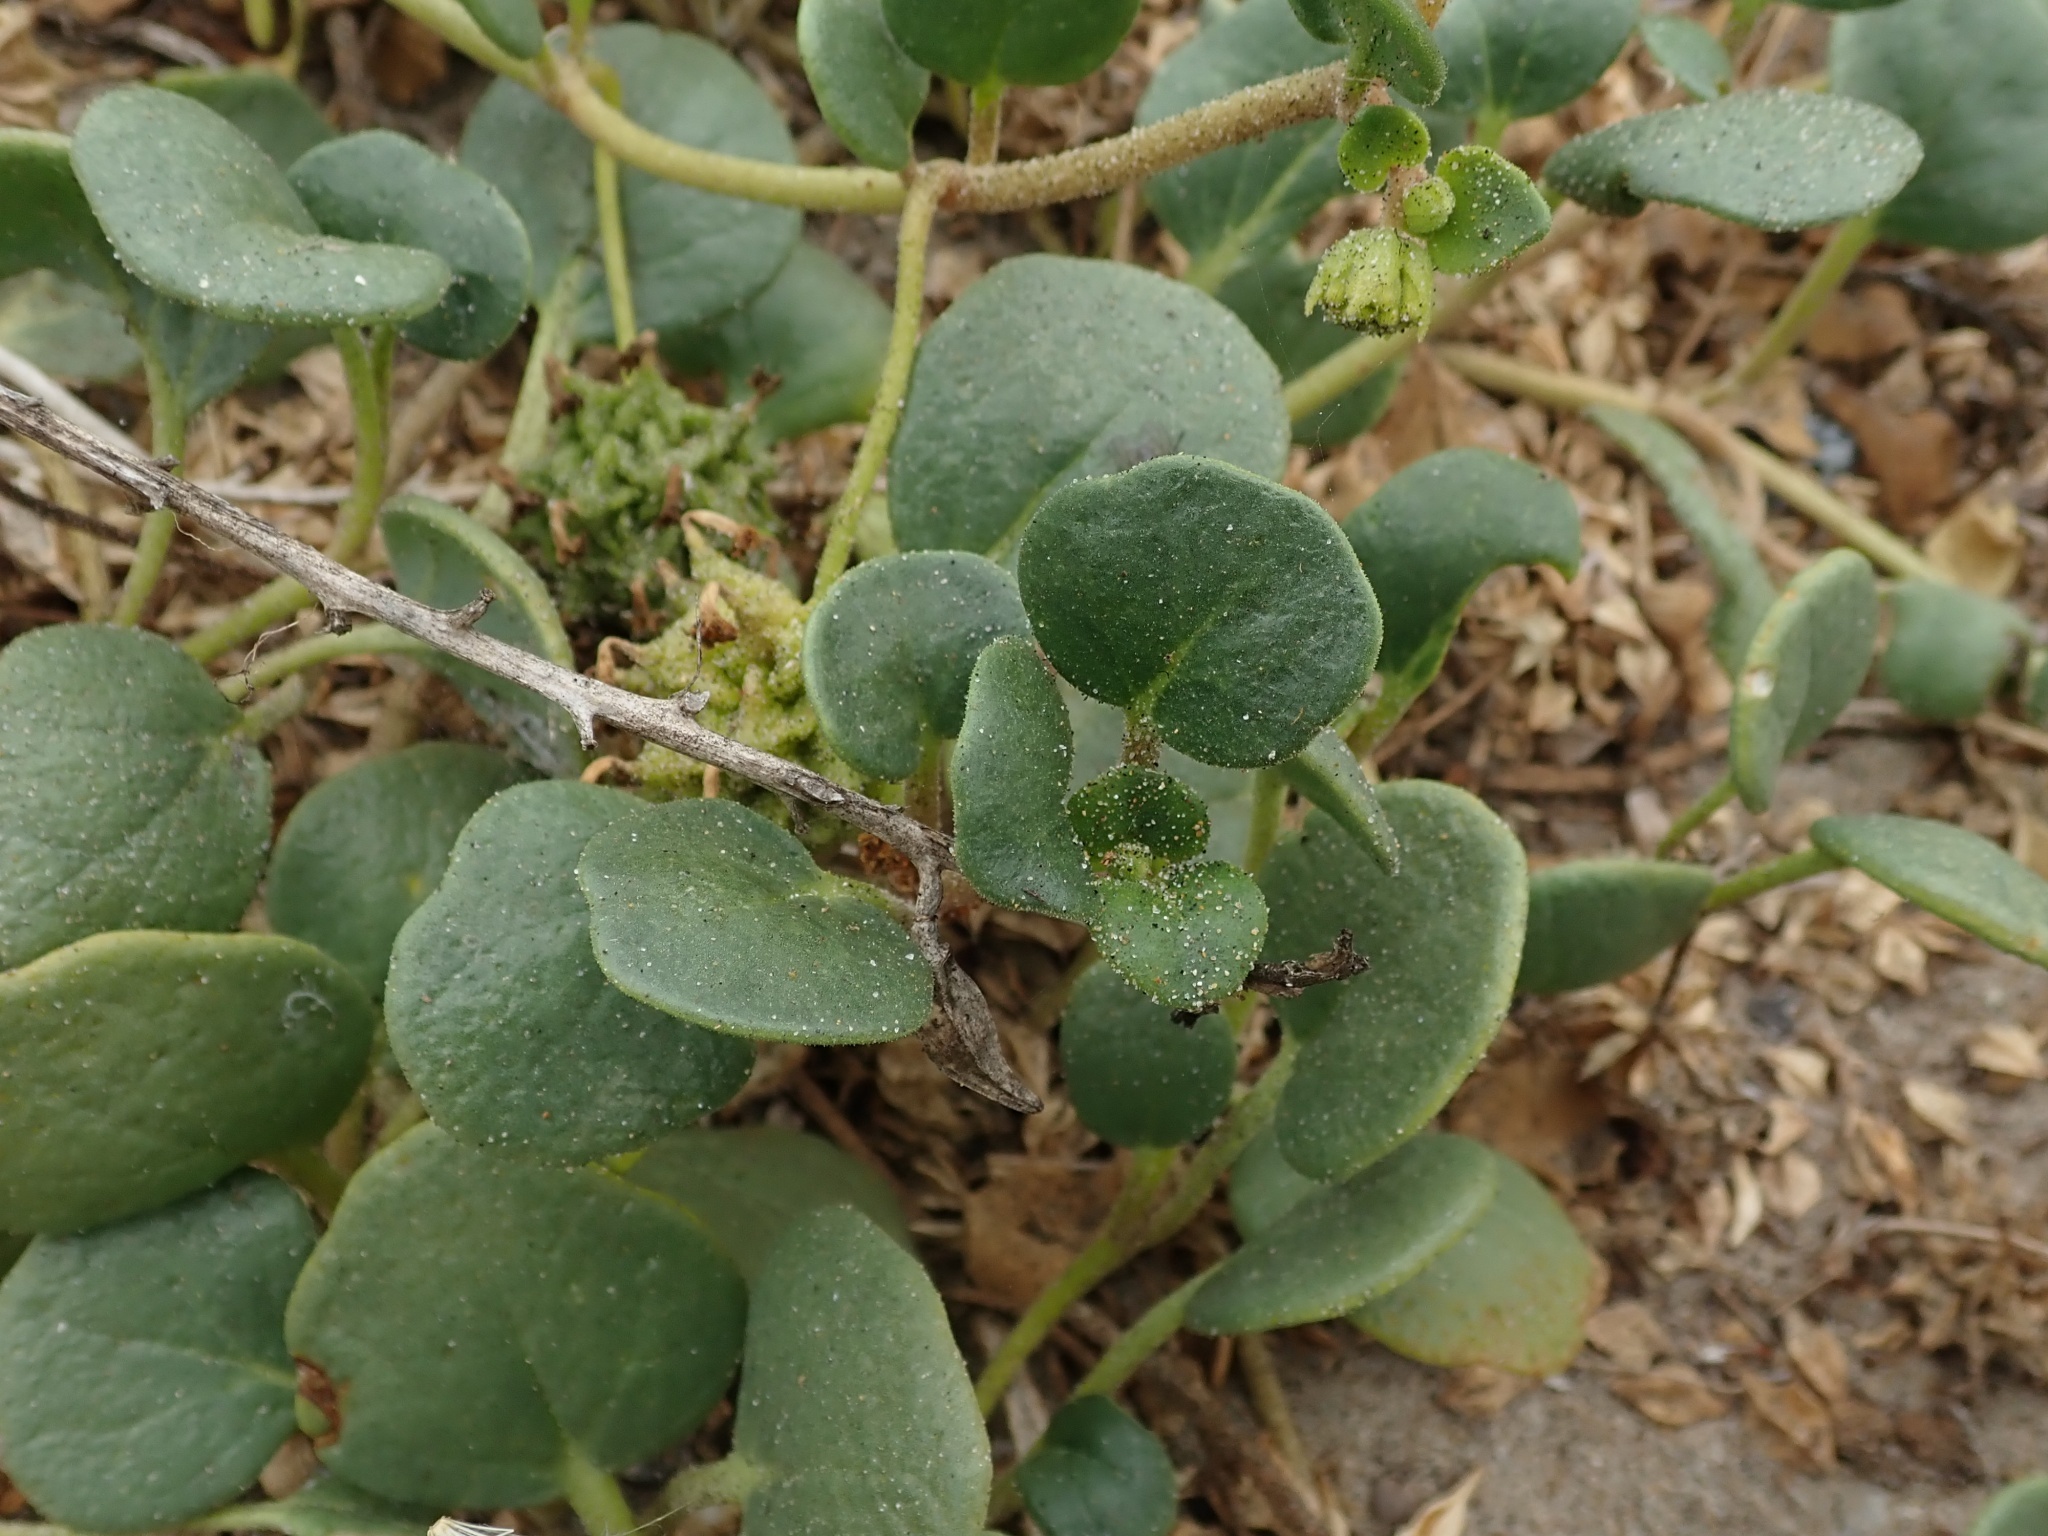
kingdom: Plantae
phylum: Tracheophyta
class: Magnoliopsida
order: Caryophyllales
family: Nyctaginaceae
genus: Abronia
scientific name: Abronia latifolia
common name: Yellow sand-verbena
